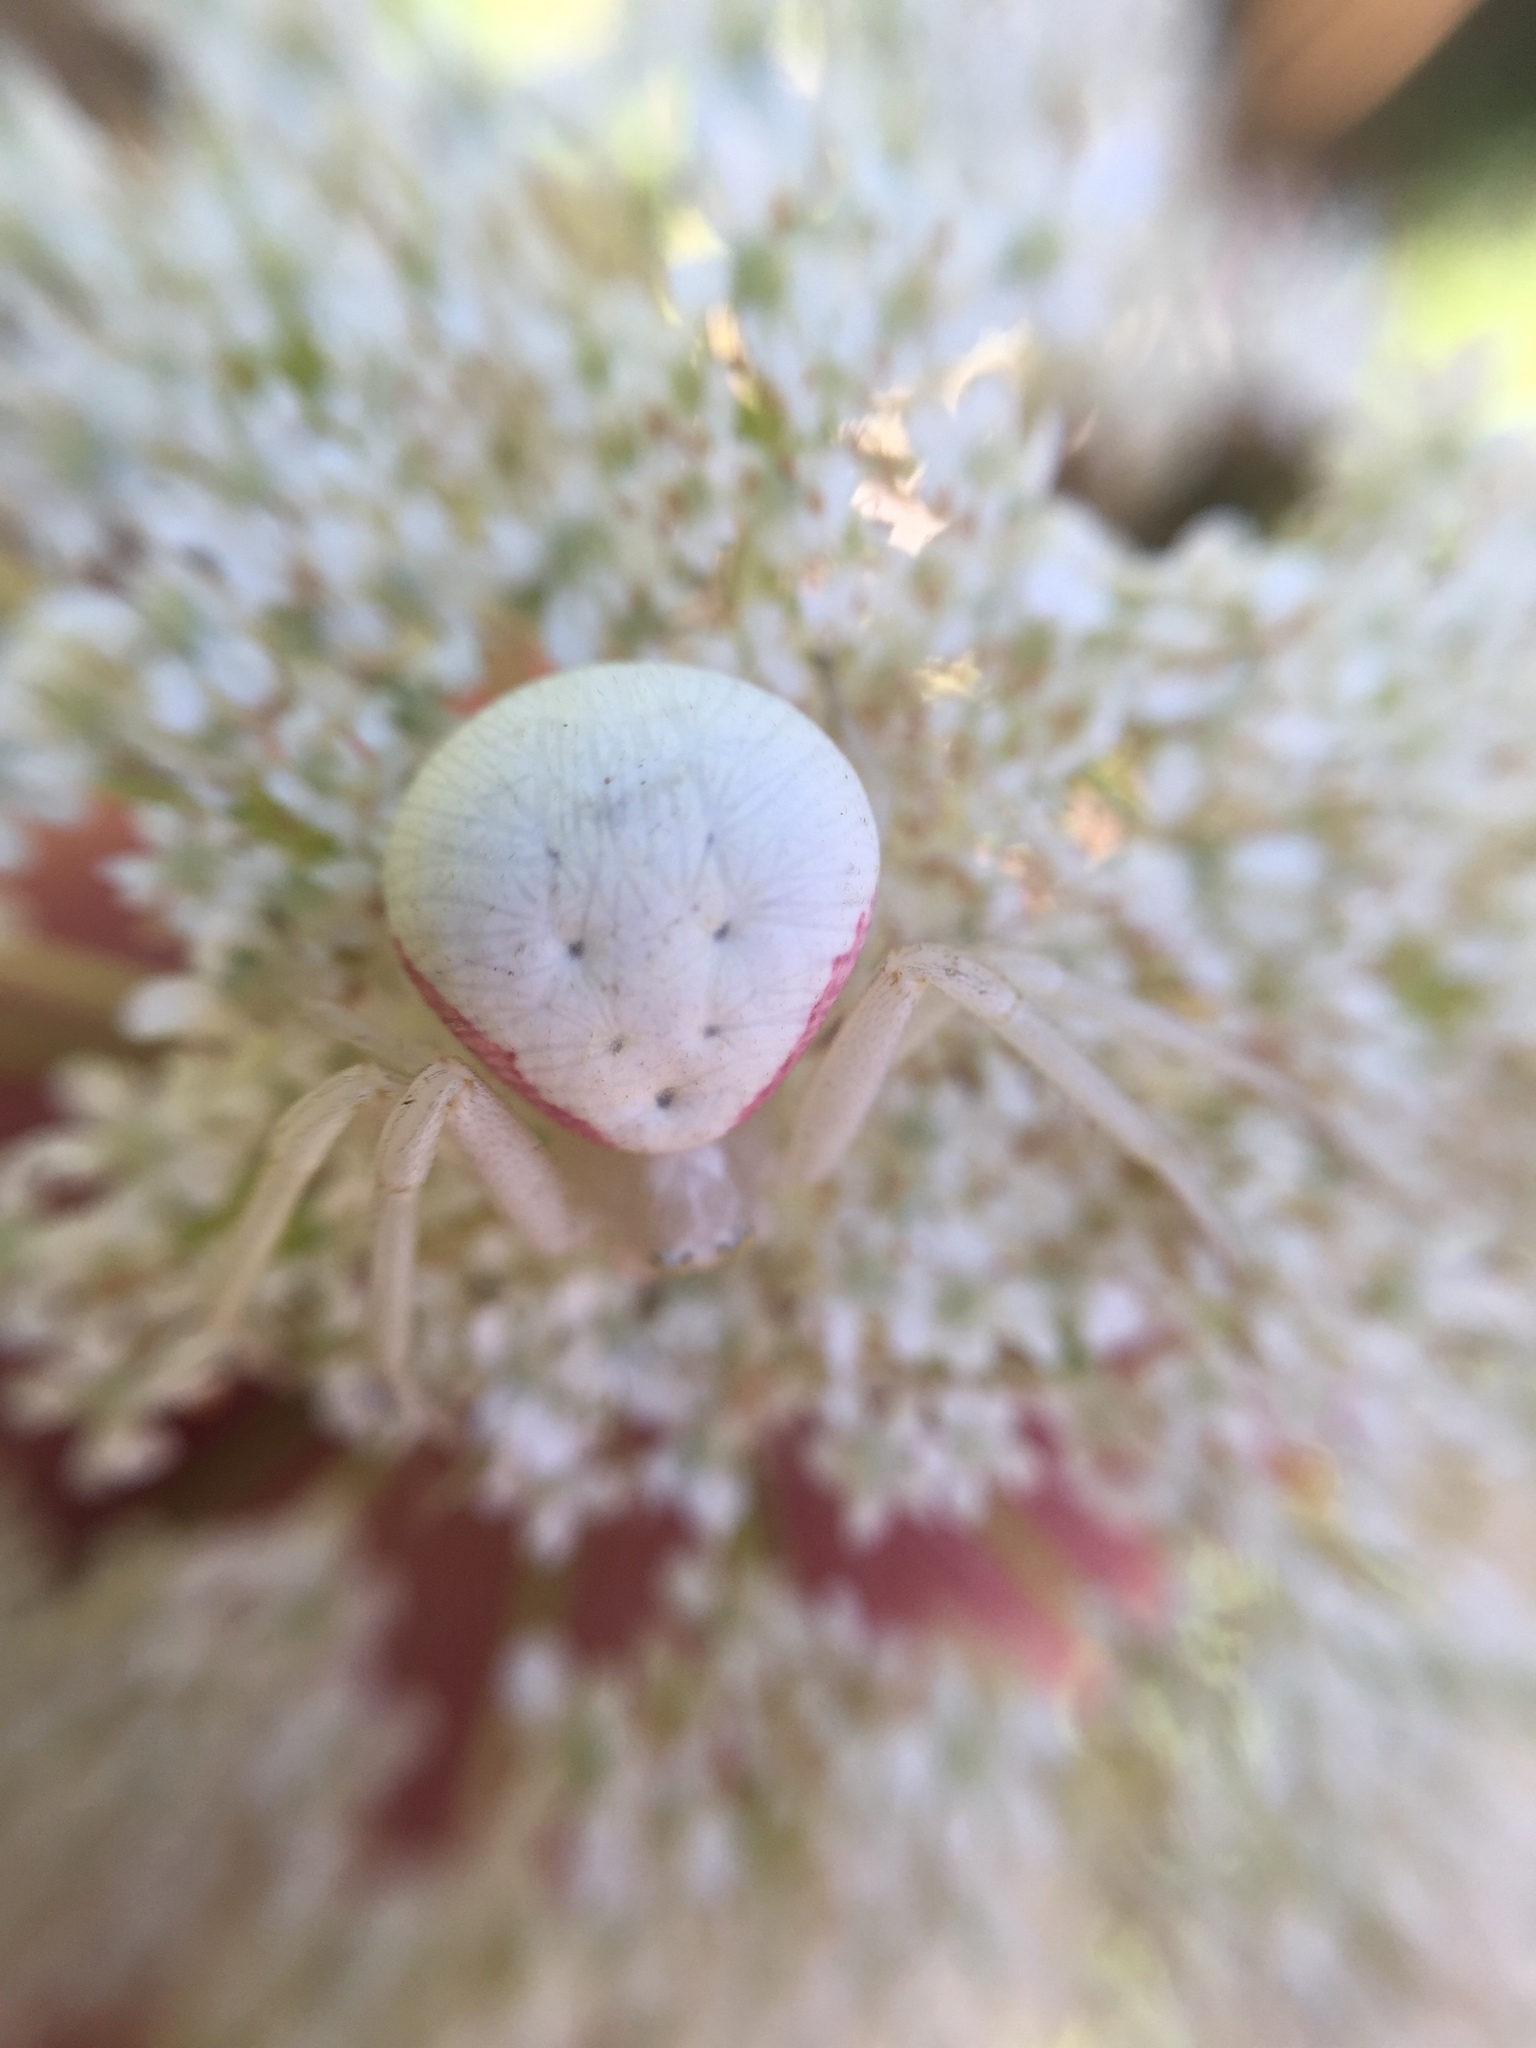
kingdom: Animalia
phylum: Arthropoda
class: Arachnida
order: Araneae
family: Thomisidae
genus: Misumena
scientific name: Misumena vatia
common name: Goldenrod crab spider
